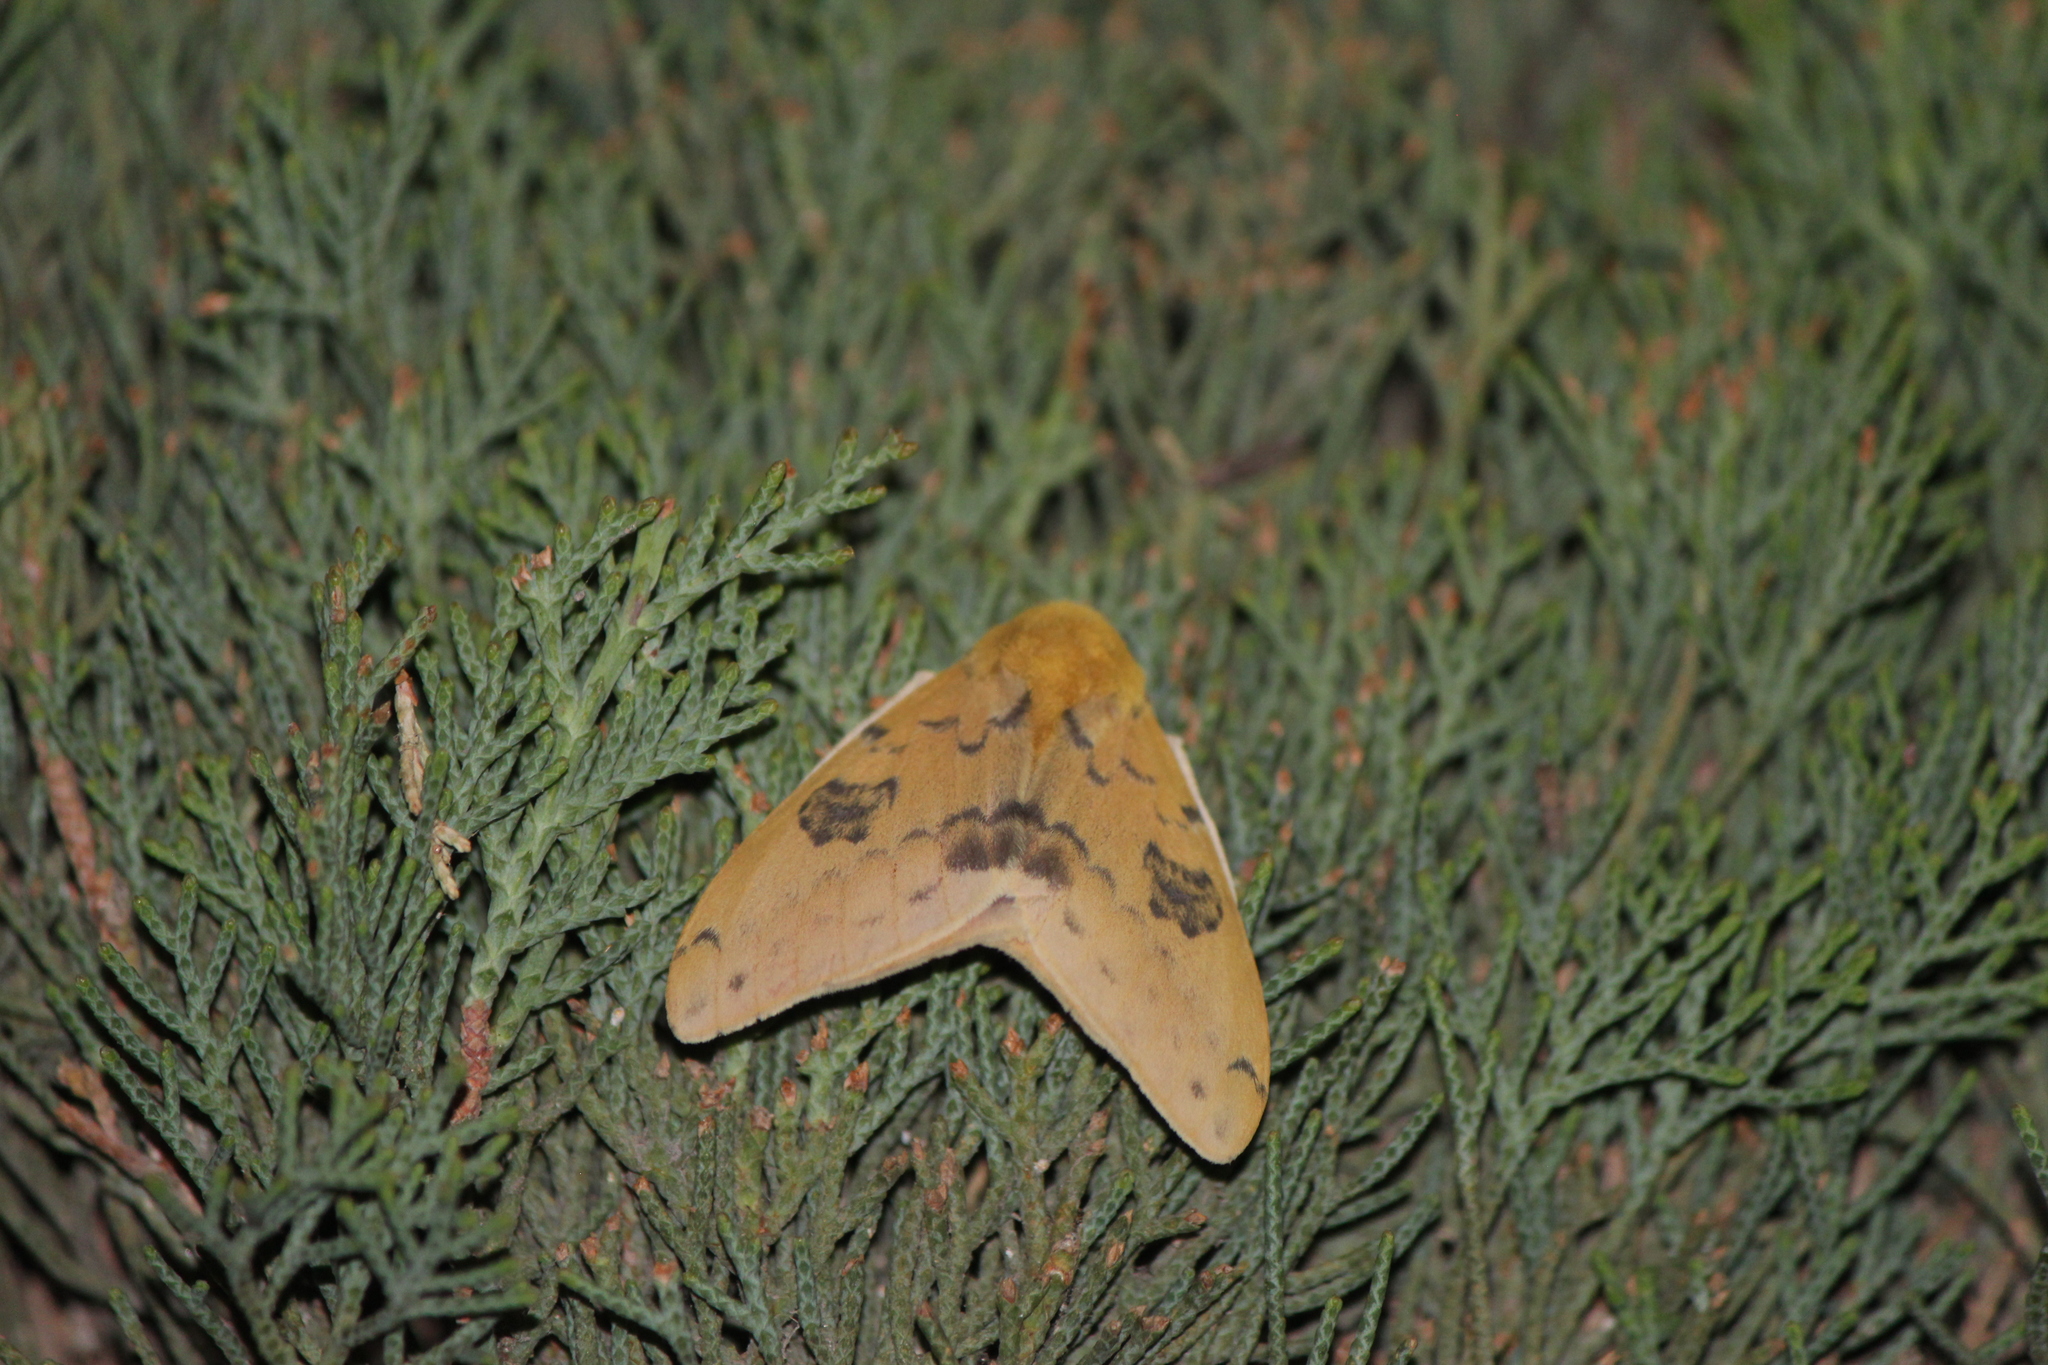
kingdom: Animalia
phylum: Arthropoda
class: Insecta
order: Lepidoptera
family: Saturniidae
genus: Automeris
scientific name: Automeris io
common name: Io moth
